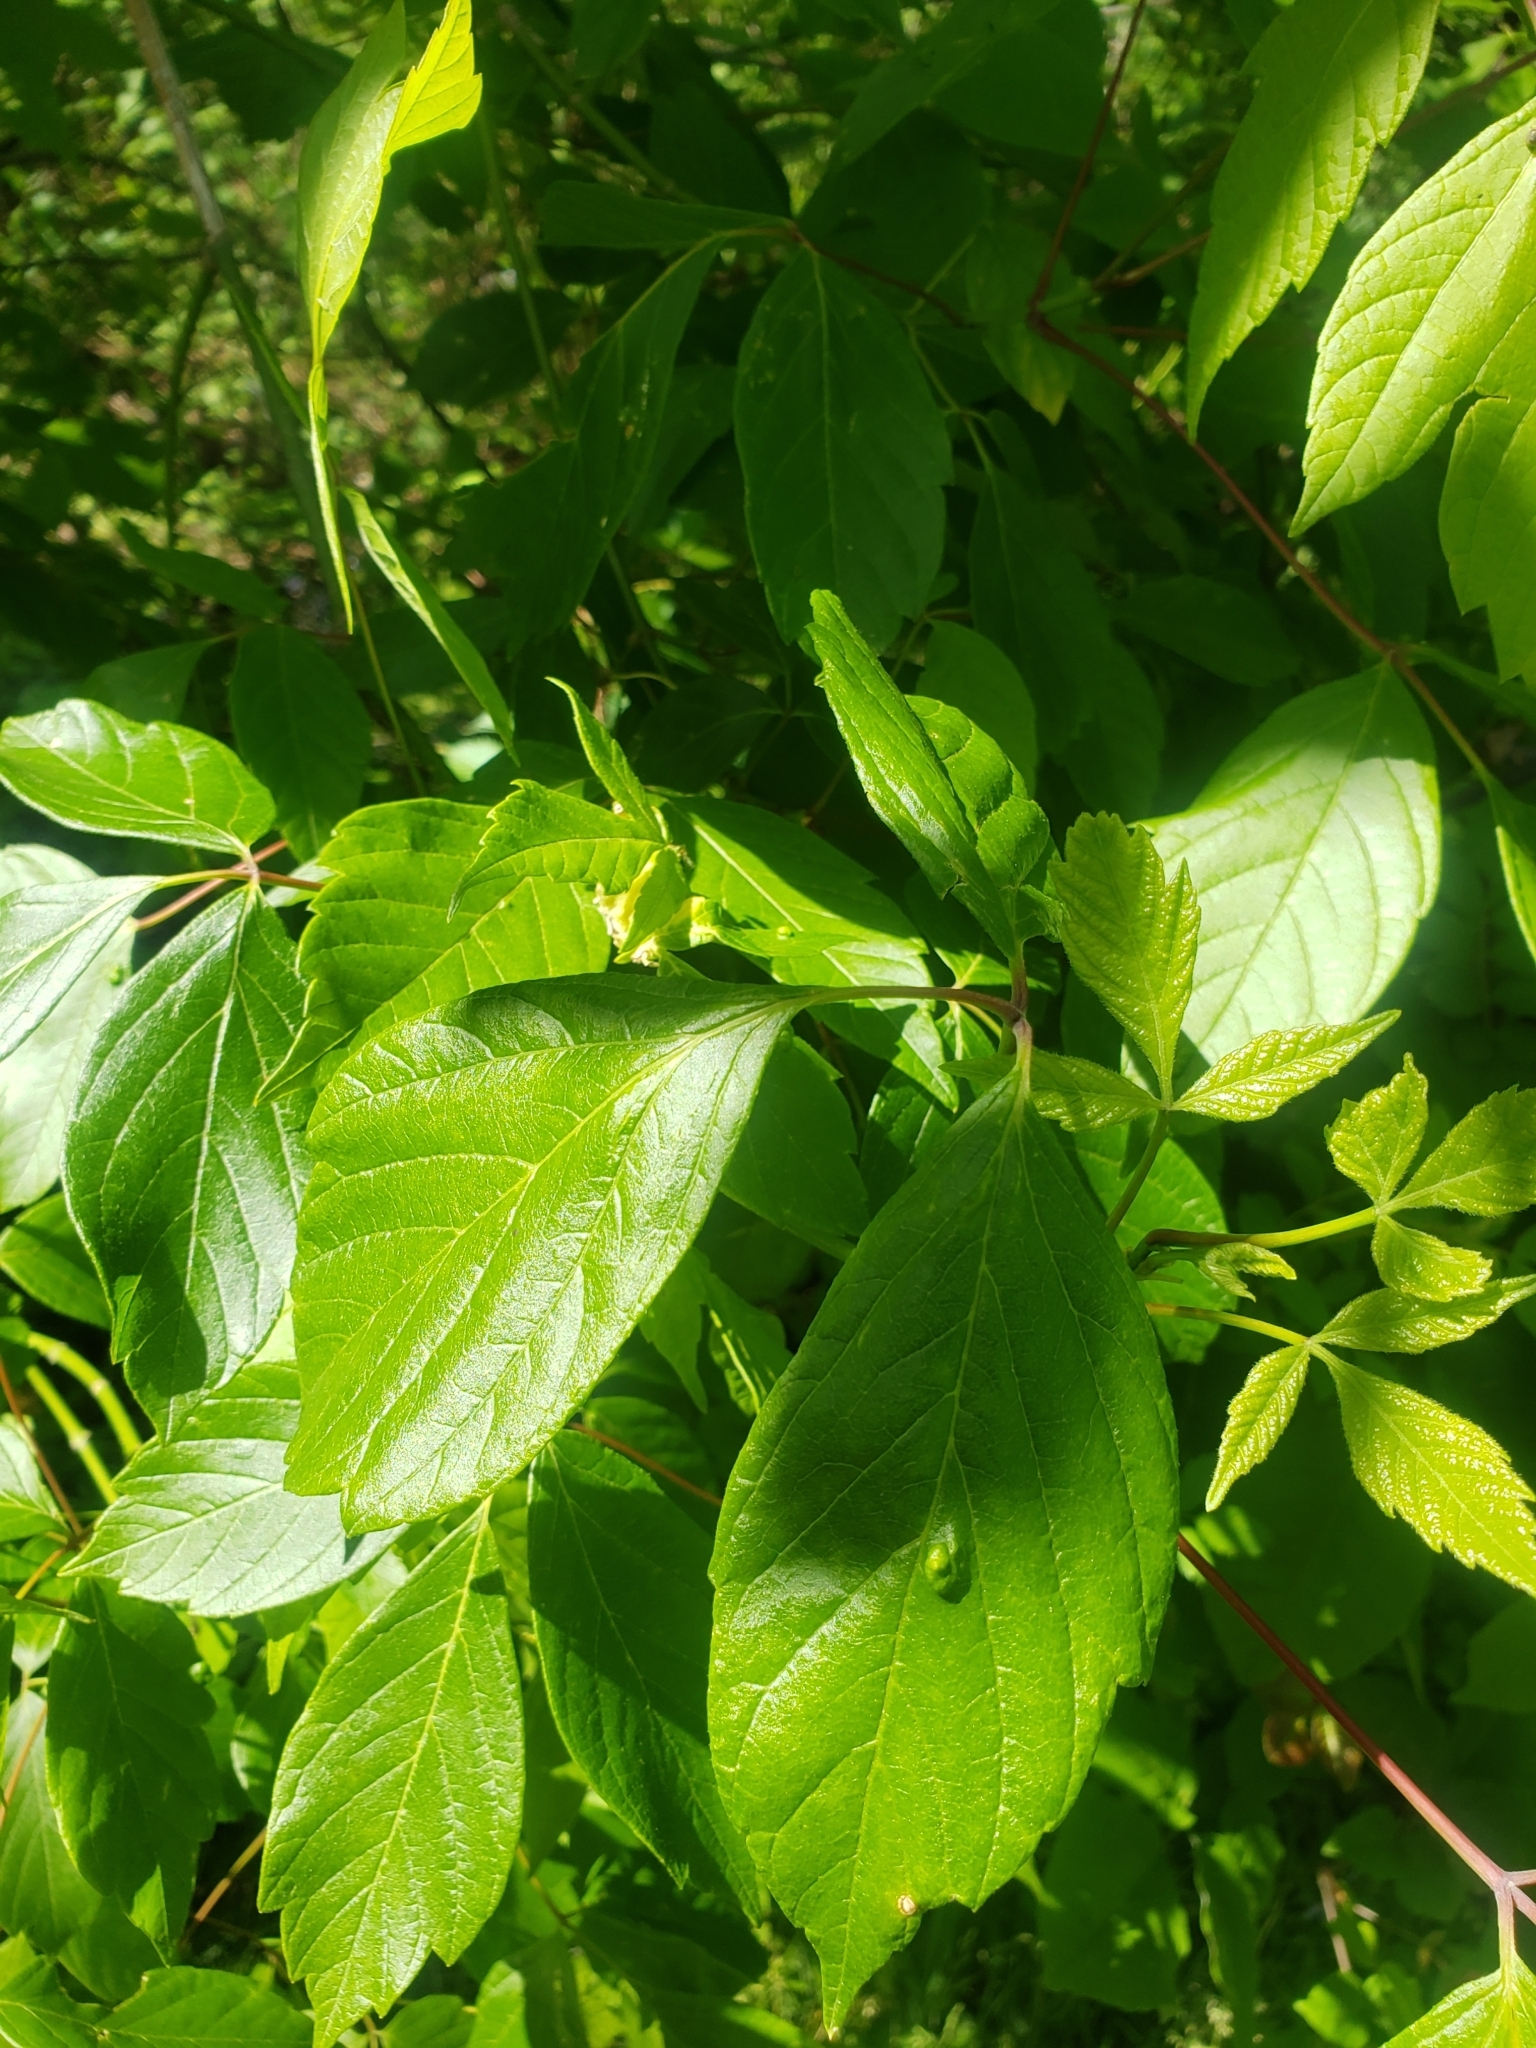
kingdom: Animalia
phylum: Arthropoda
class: Arachnida
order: Trombidiformes
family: Eriophyidae
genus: Aceria
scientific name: Aceria
